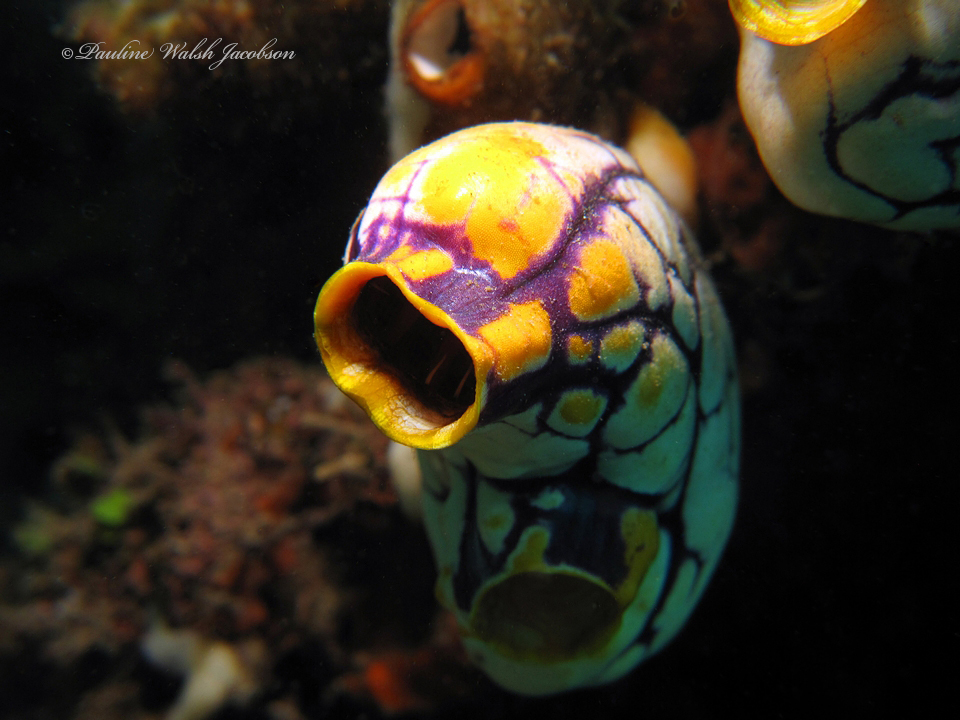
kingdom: Animalia
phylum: Chordata
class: Ascidiacea
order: Stolidobranchia
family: Styelidae
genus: Polycarpa
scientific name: Polycarpa aurata
